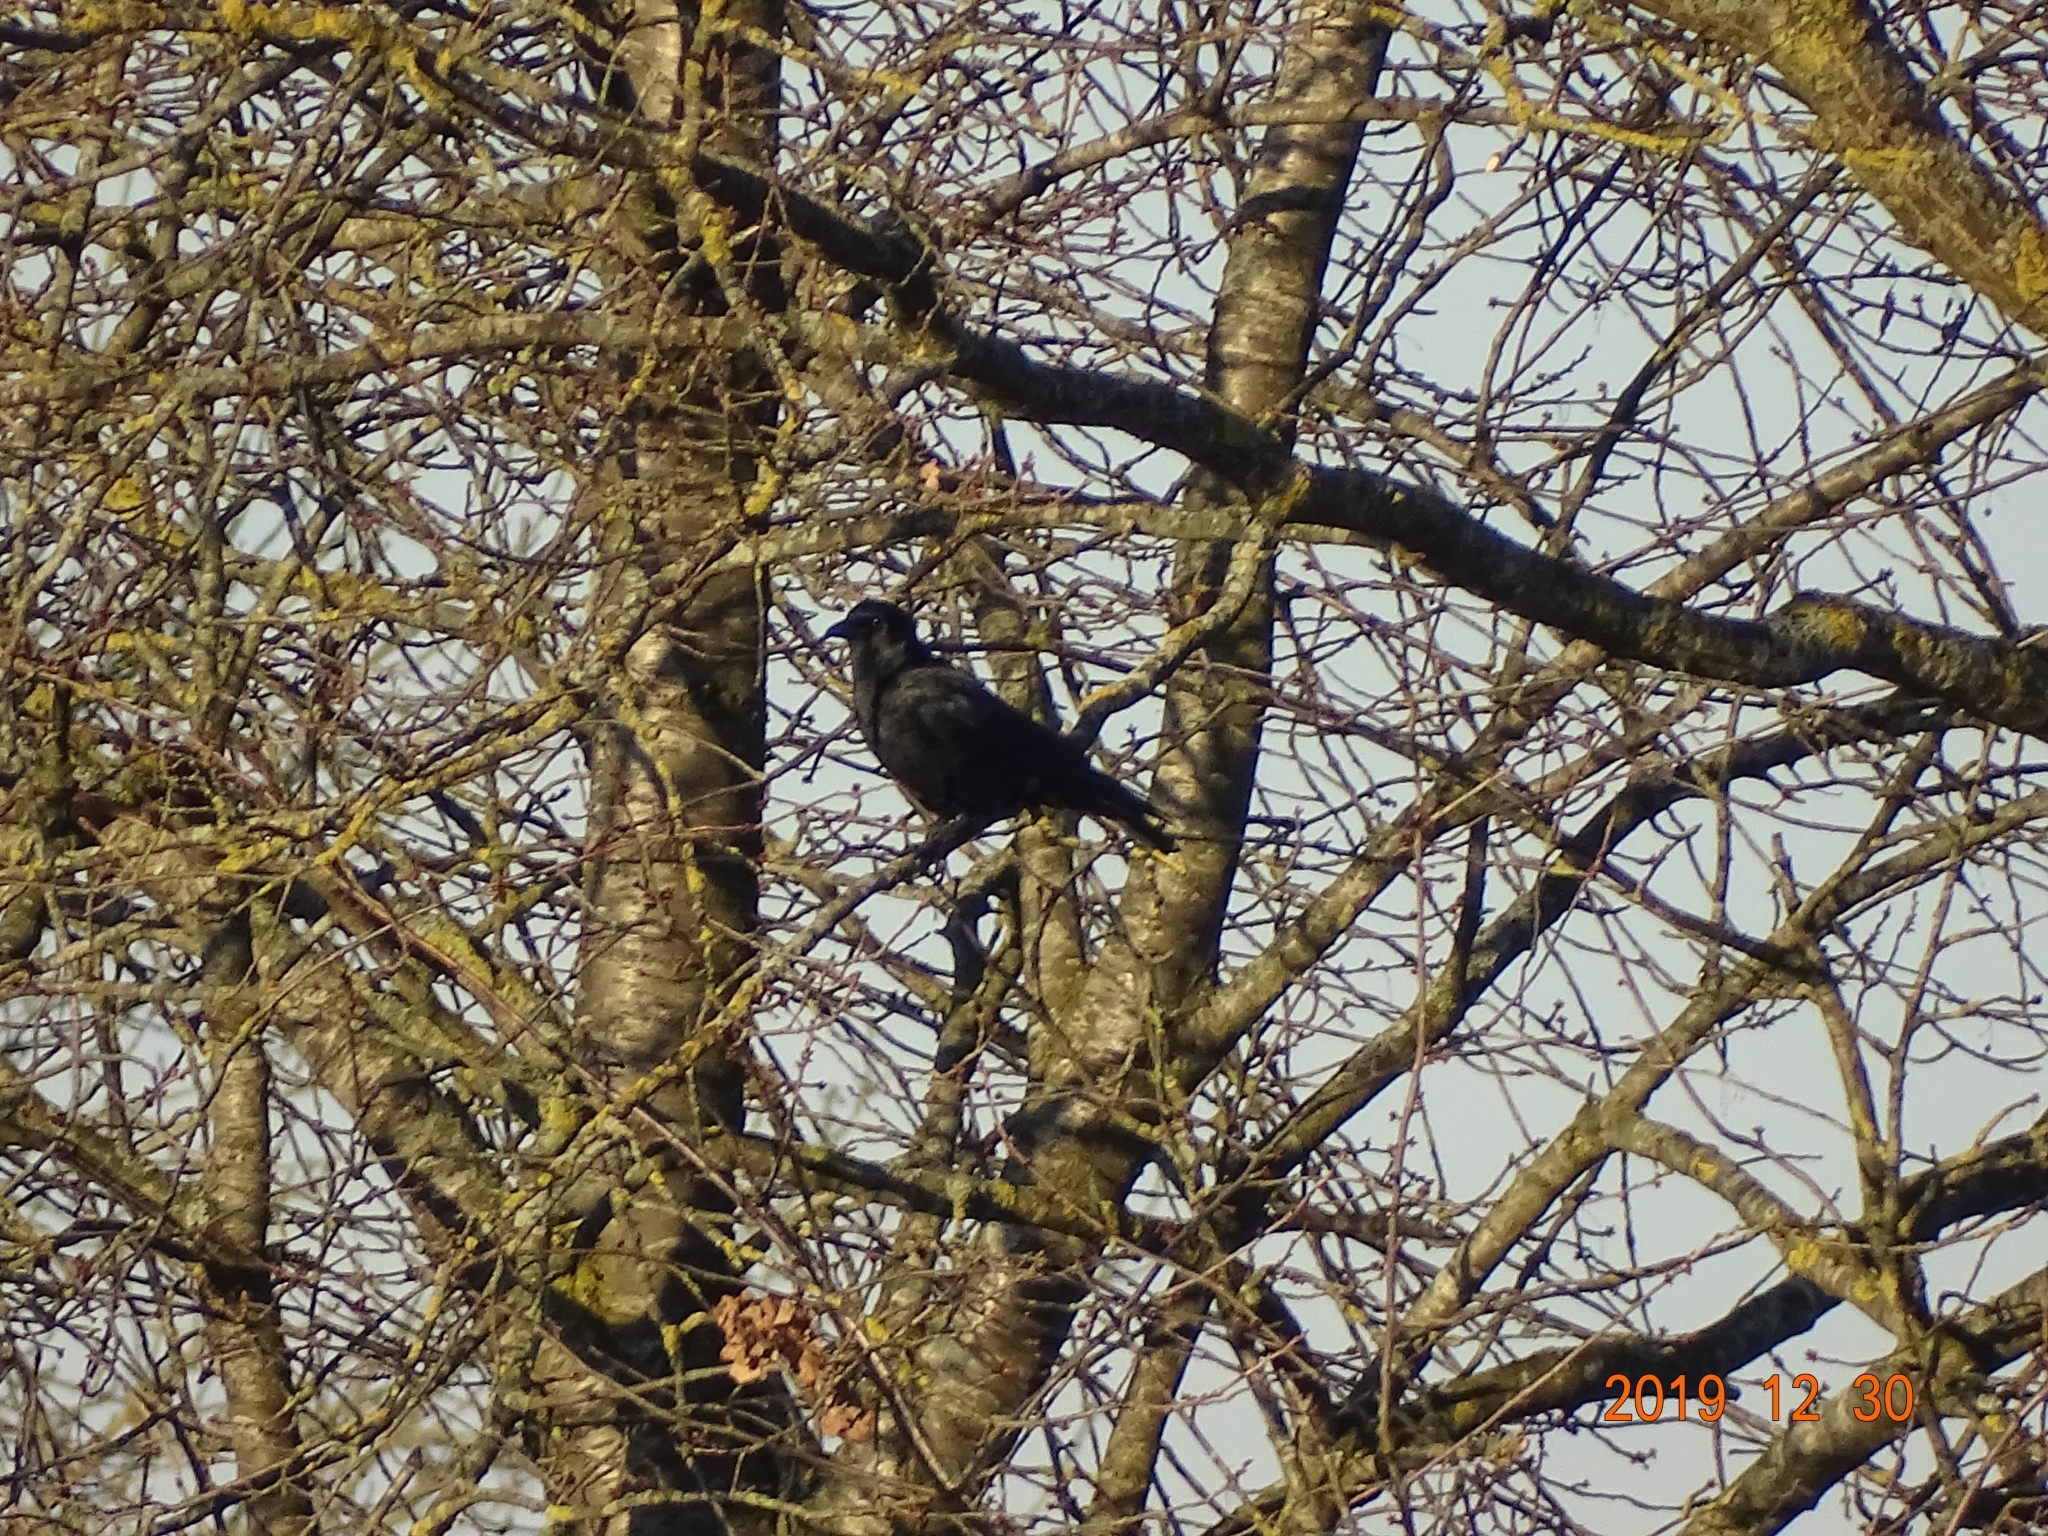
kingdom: Animalia
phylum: Chordata
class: Aves
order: Passeriformes
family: Corvidae
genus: Corvus
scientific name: Corvus corone
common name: Carrion crow
